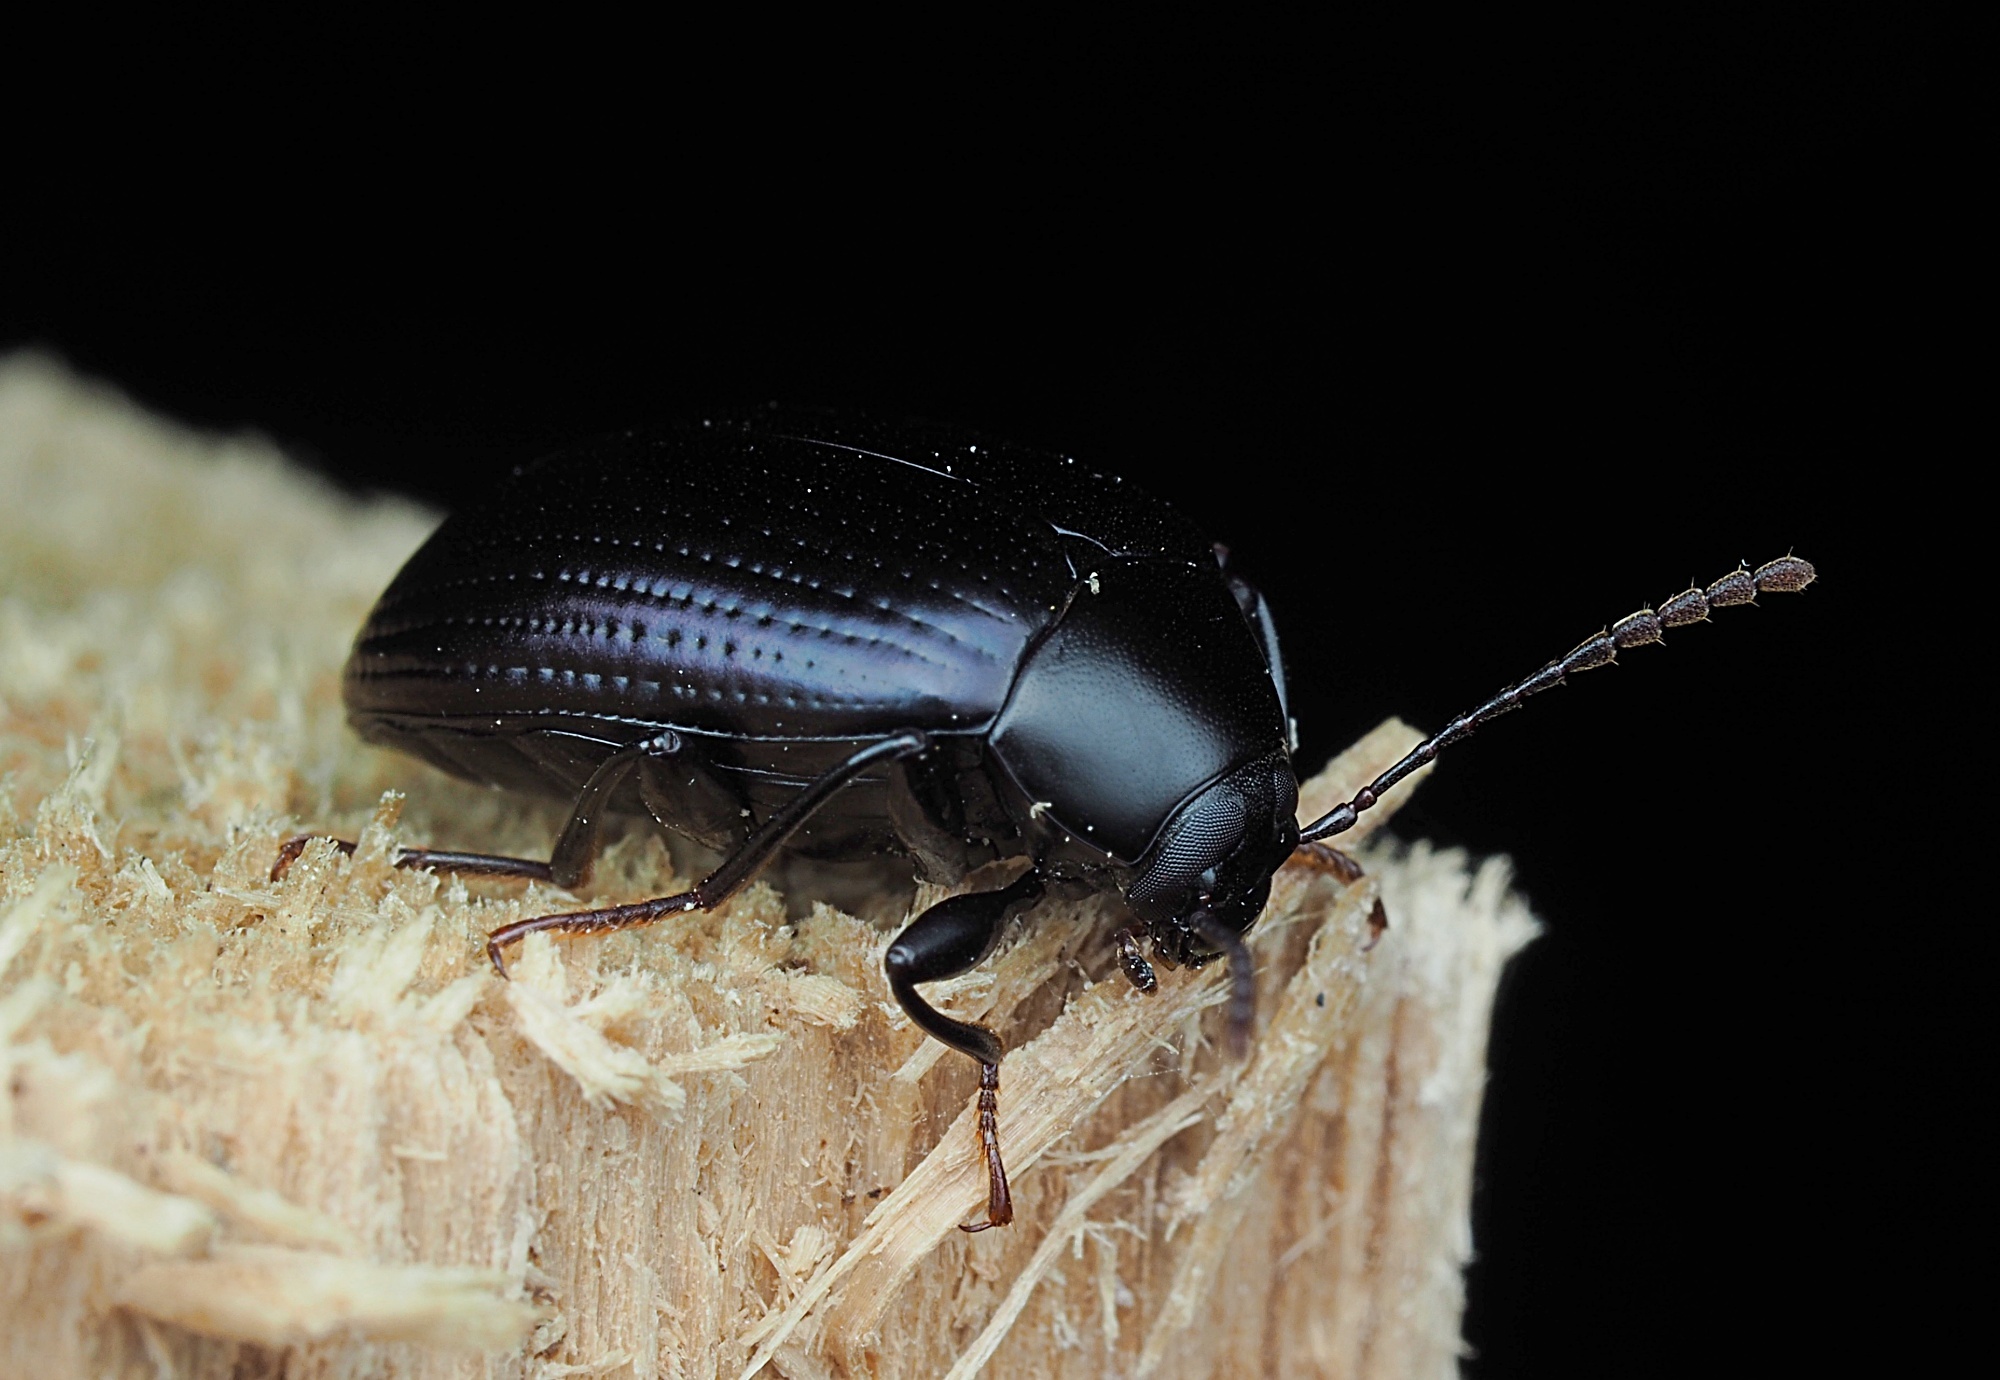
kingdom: Animalia
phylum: Arthropoda
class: Insecta
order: Coleoptera
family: Tenebrionidae
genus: Amarygmus
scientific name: Amarygmus
